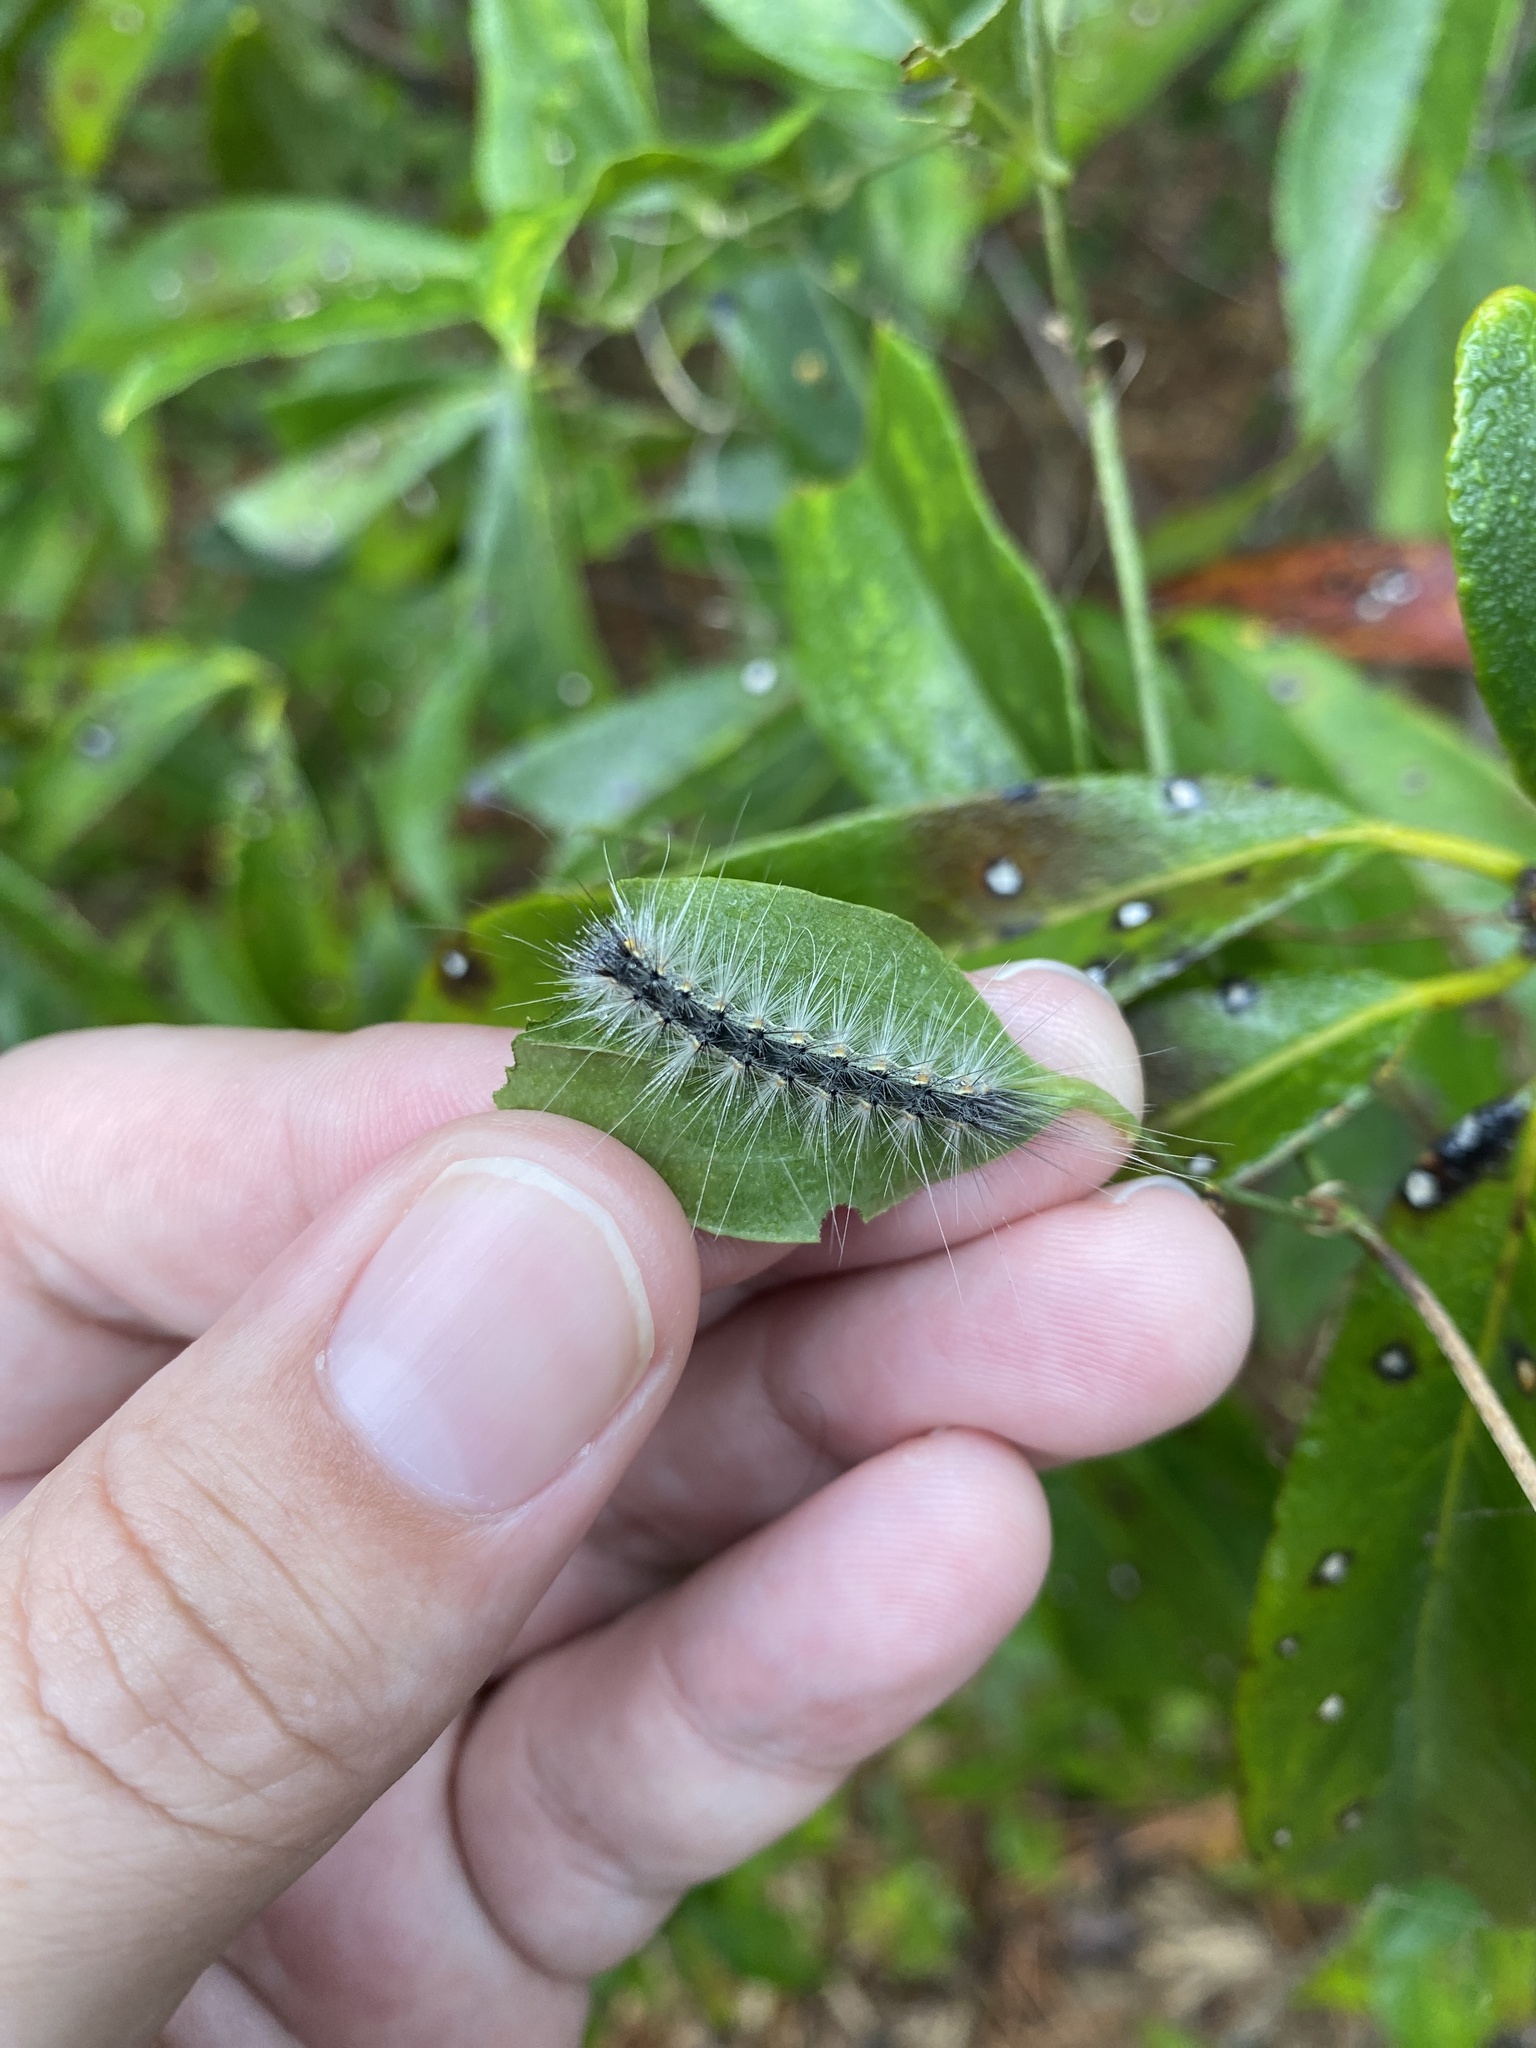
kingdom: Animalia
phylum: Arthropoda
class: Insecta
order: Lepidoptera
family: Erebidae
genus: Hyphantria
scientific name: Hyphantria cunea
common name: American white moth
